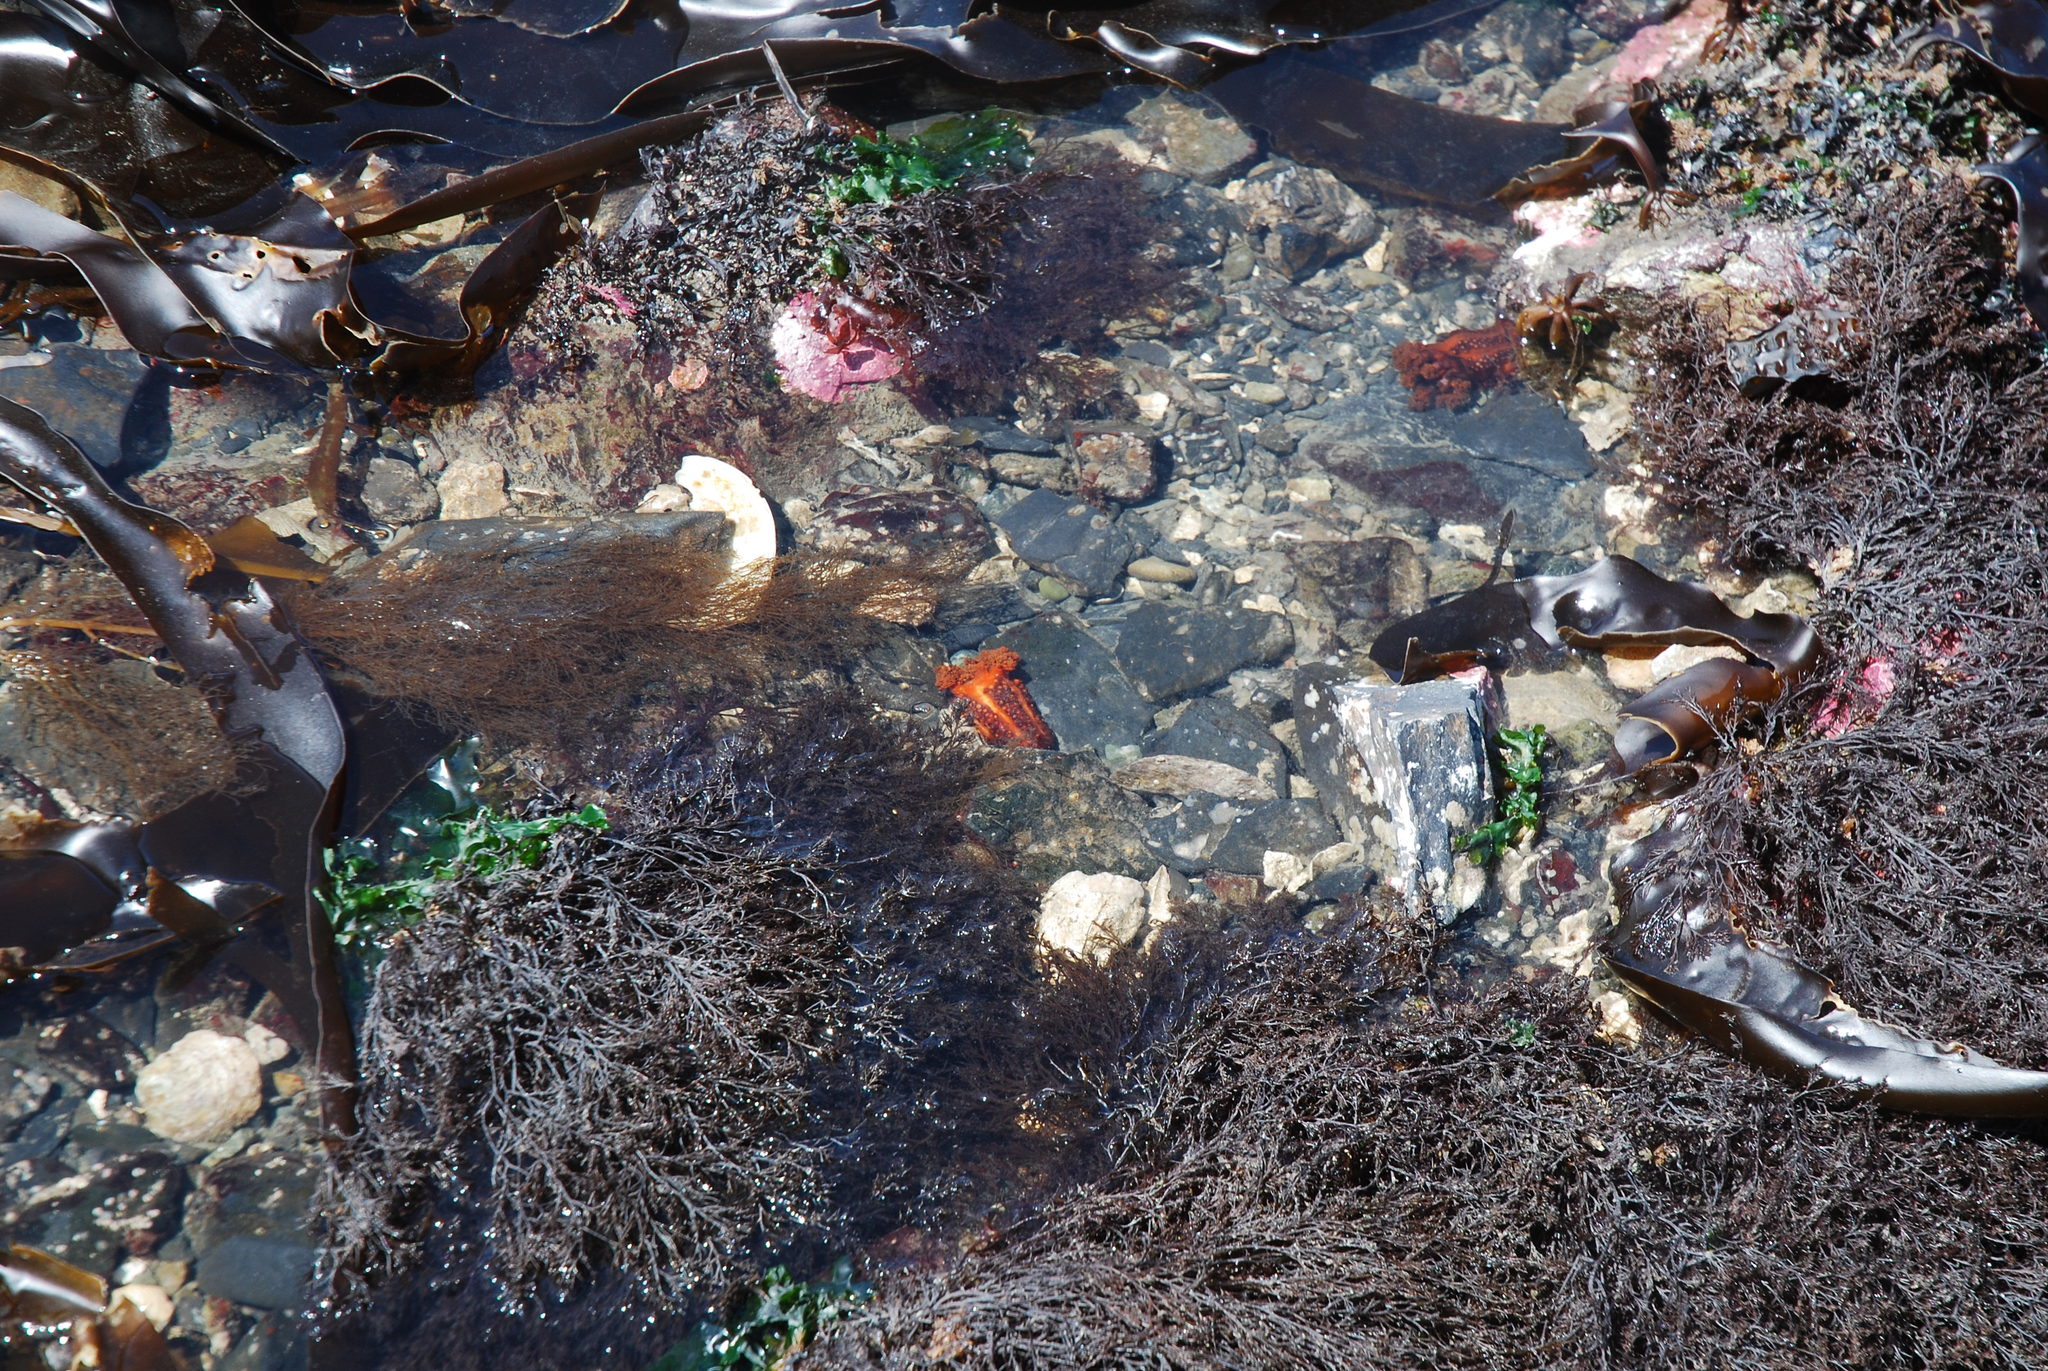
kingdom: Animalia
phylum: Echinodermata
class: Holothuroidea
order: Dendrochirotida
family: Cucumariidae
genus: Cucumaria
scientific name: Cucumaria miniata
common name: Orange sea cucumber
